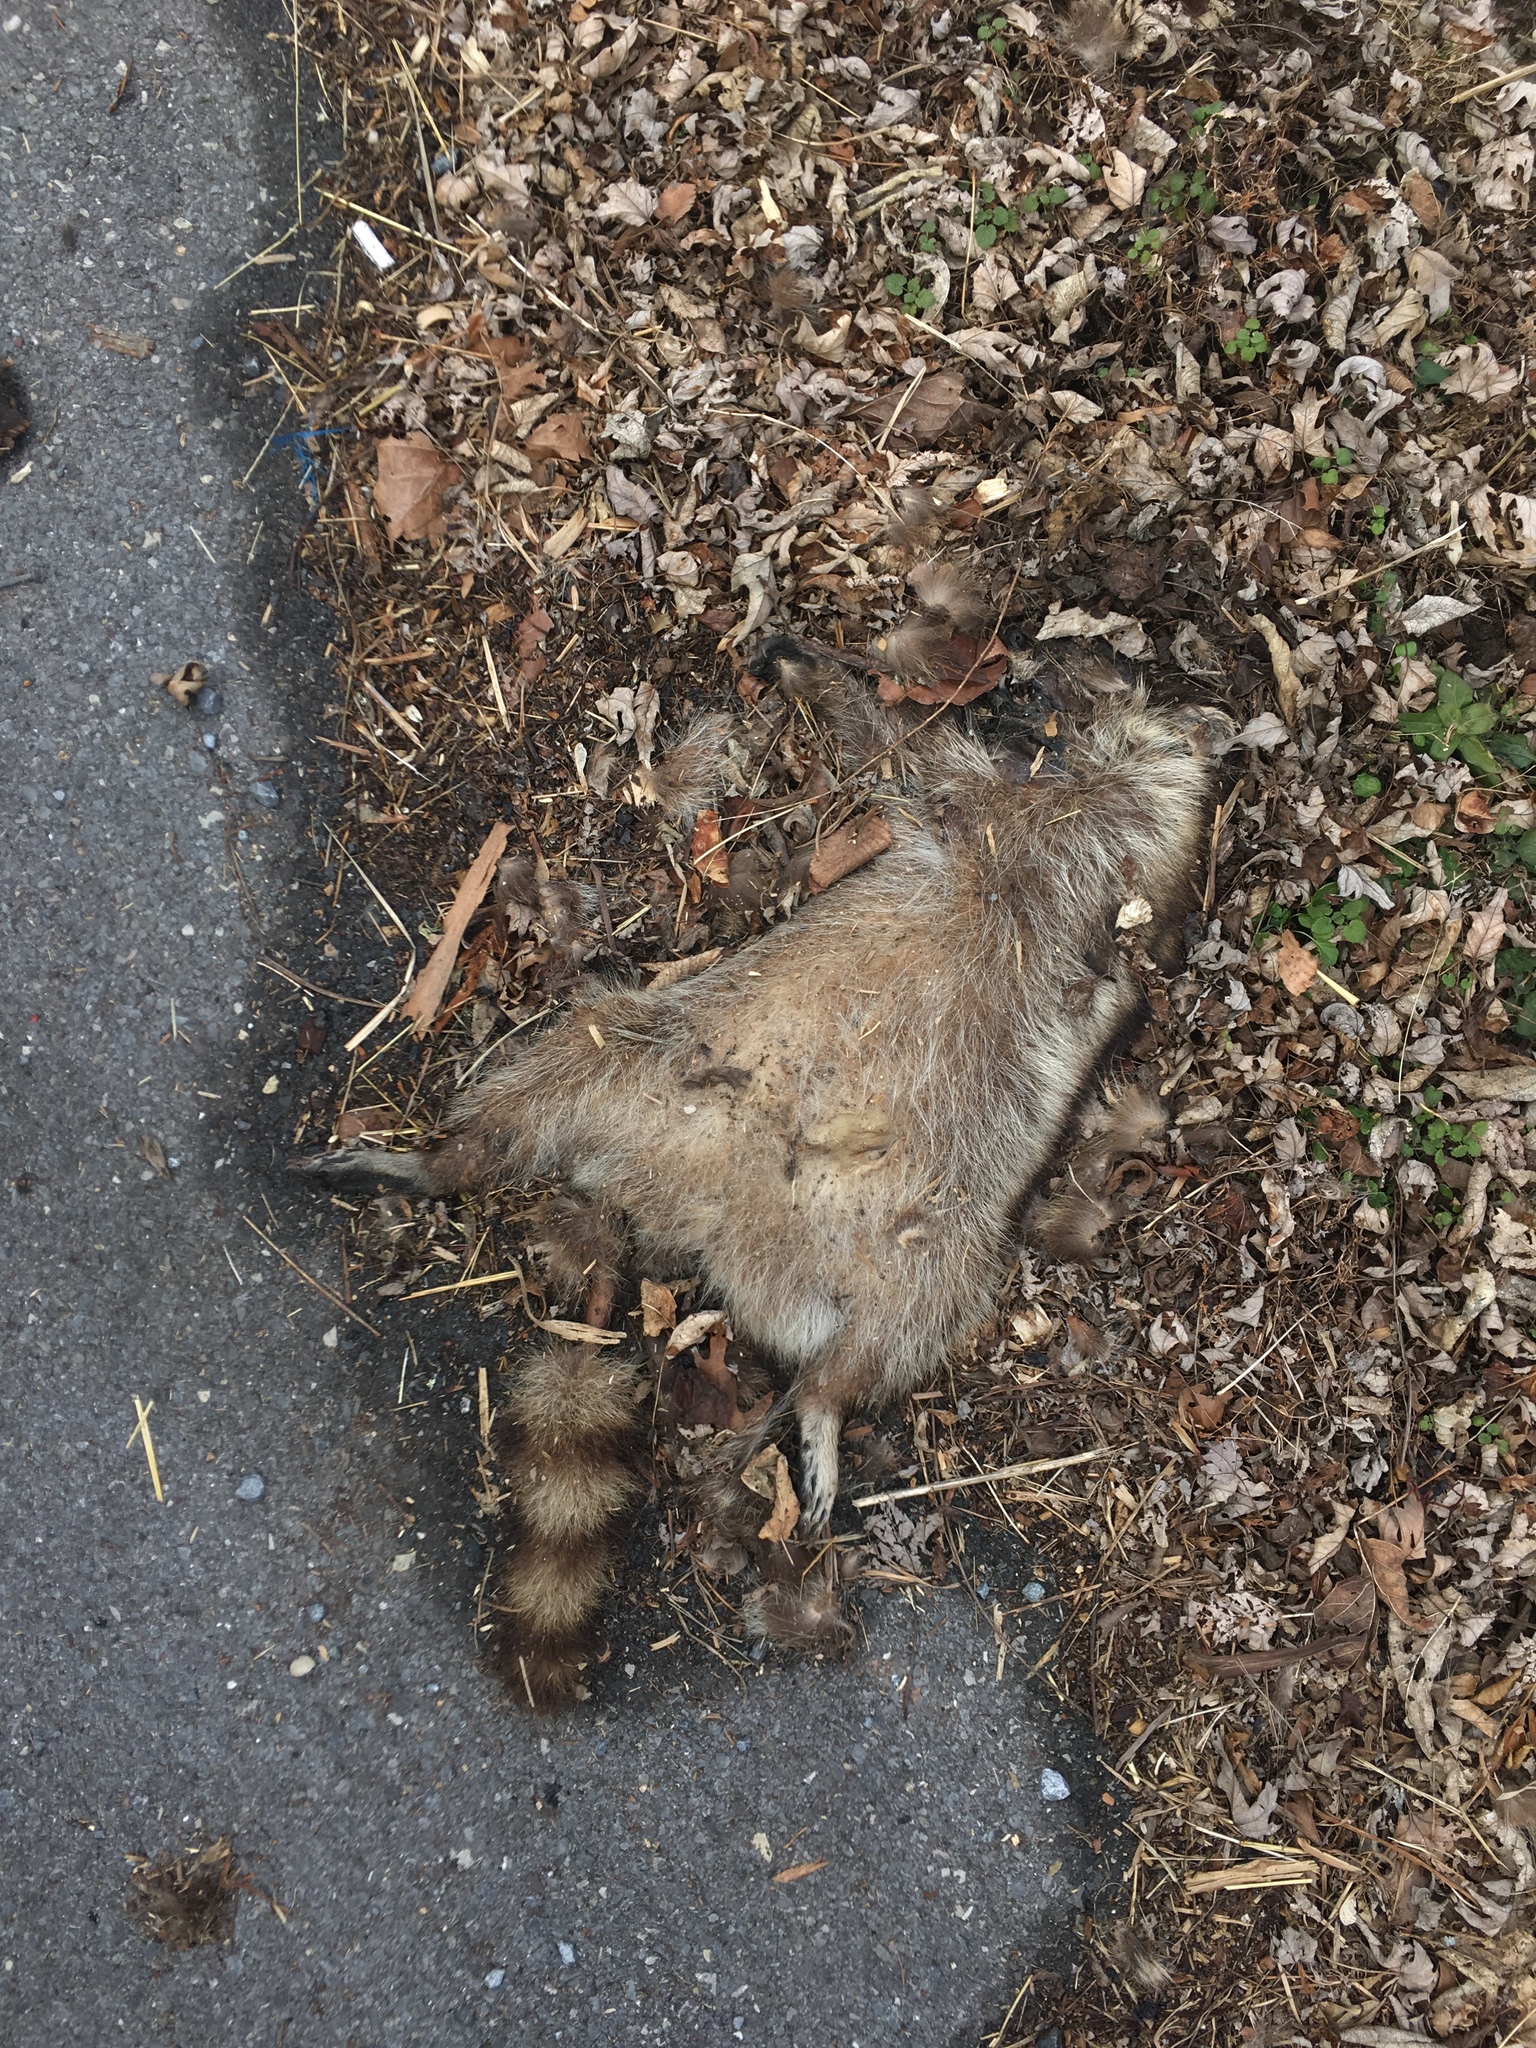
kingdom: Animalia
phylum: Chordata
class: Mammalia
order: Carnivora
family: Procyonidae
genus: Procyon
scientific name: Procyon lotor
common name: Raccoon
